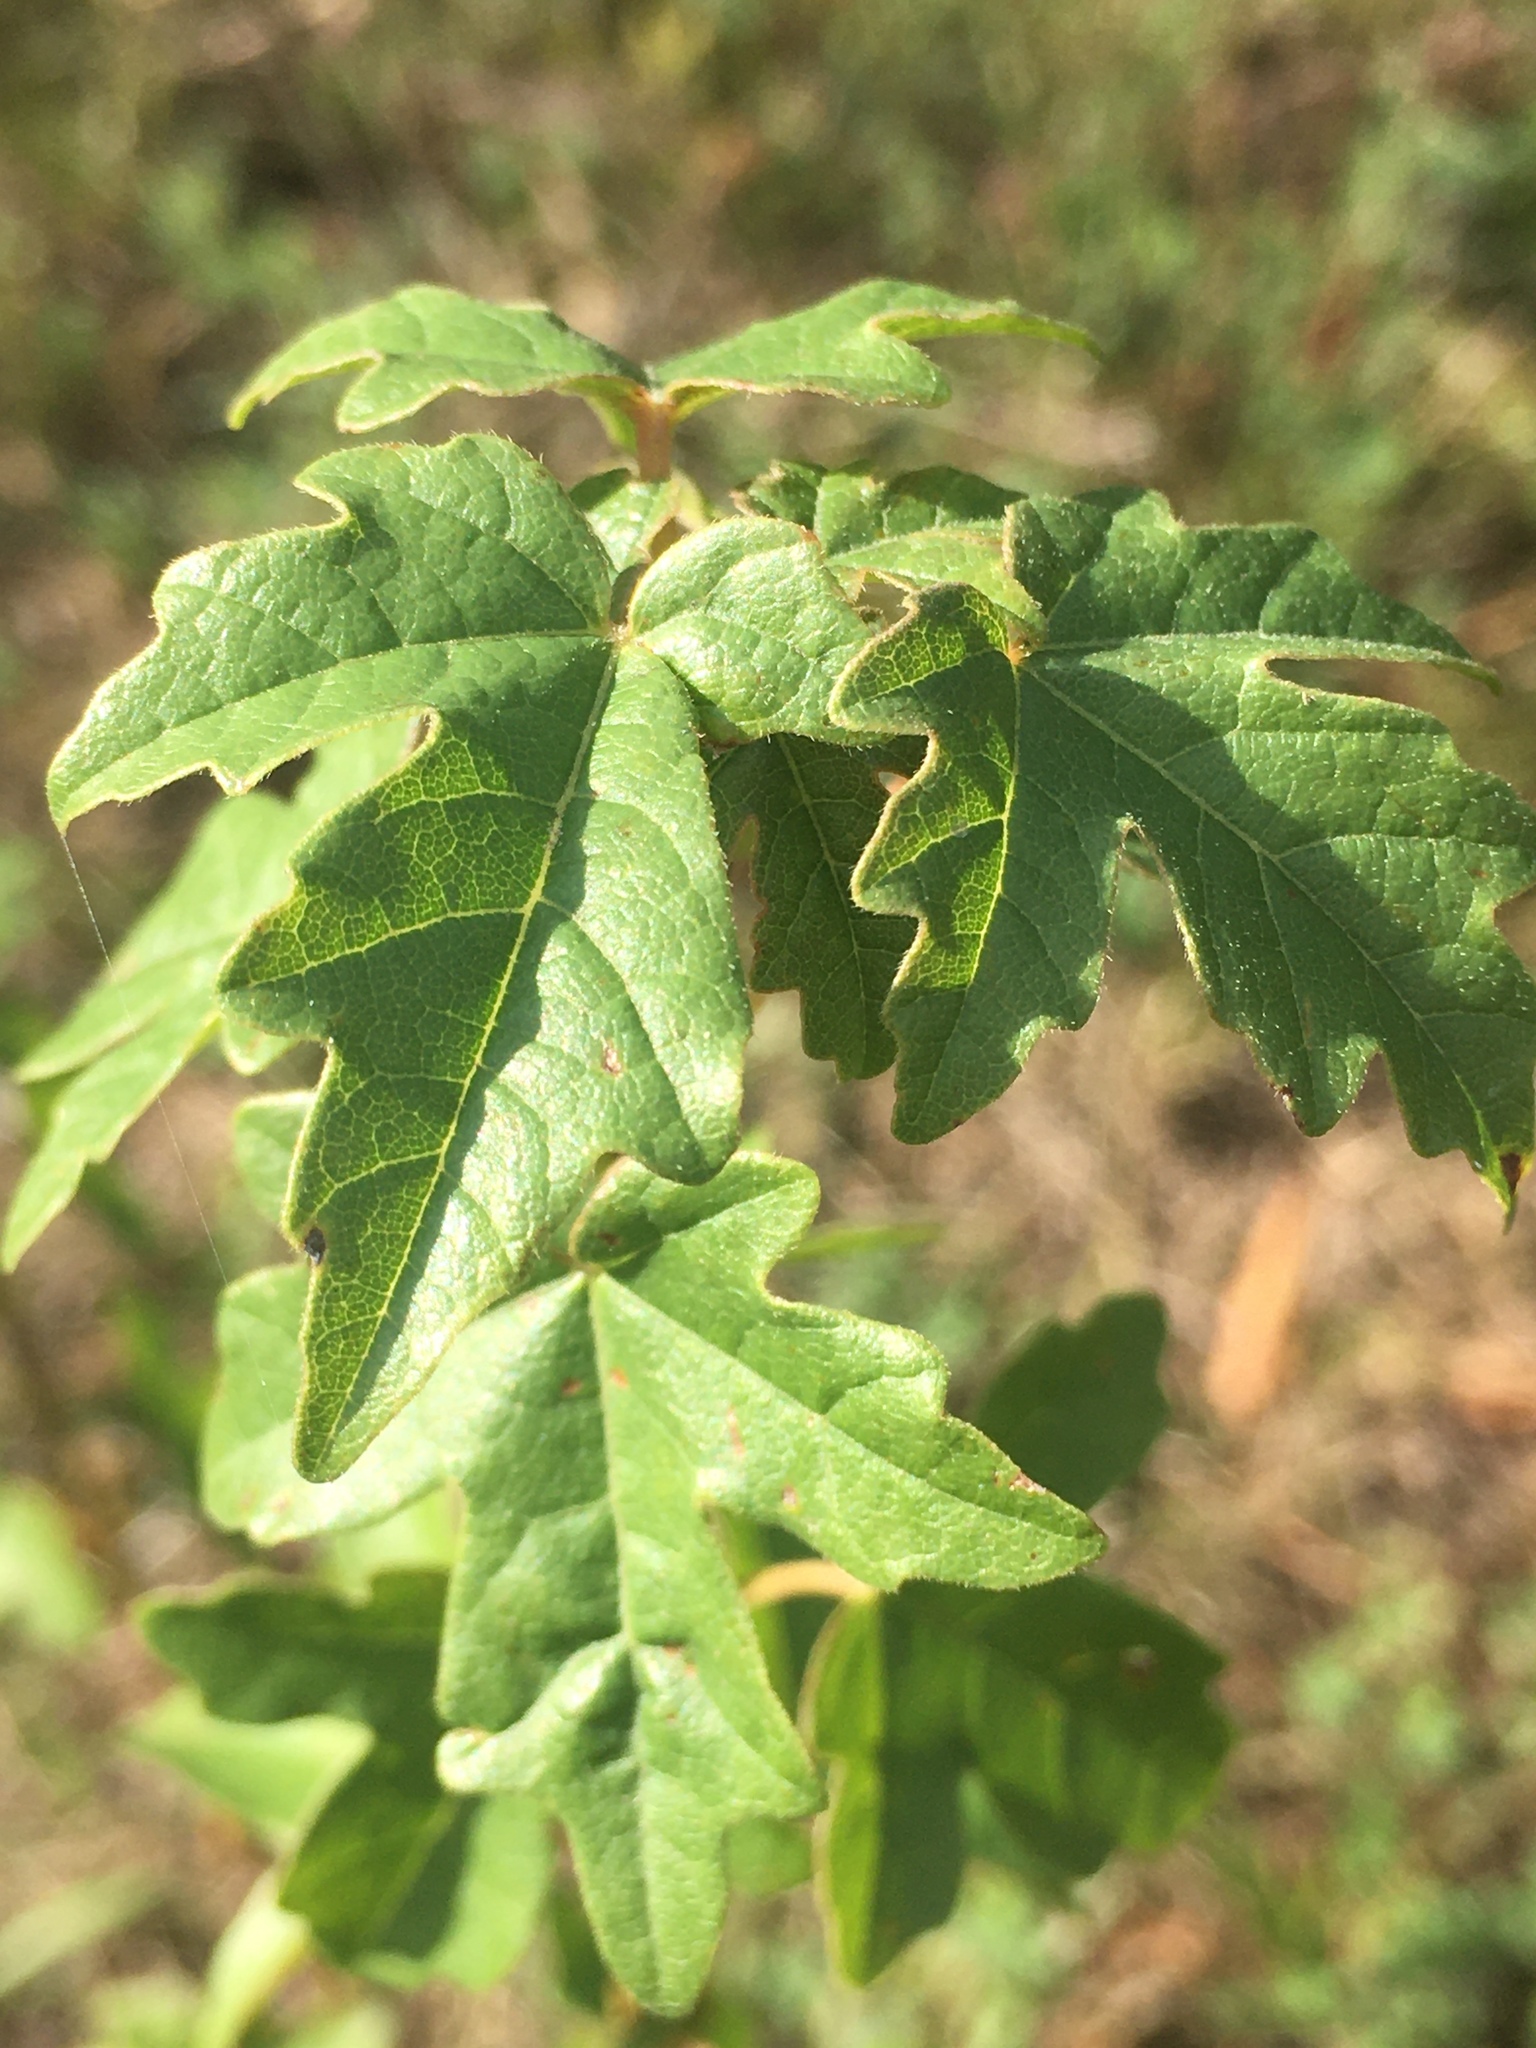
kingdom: Plantae
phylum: Tracheophyta
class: Magnoliopsida
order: Sapindales
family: Sapindaceae
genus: Acer
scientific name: Acer campestre
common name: Field maple
